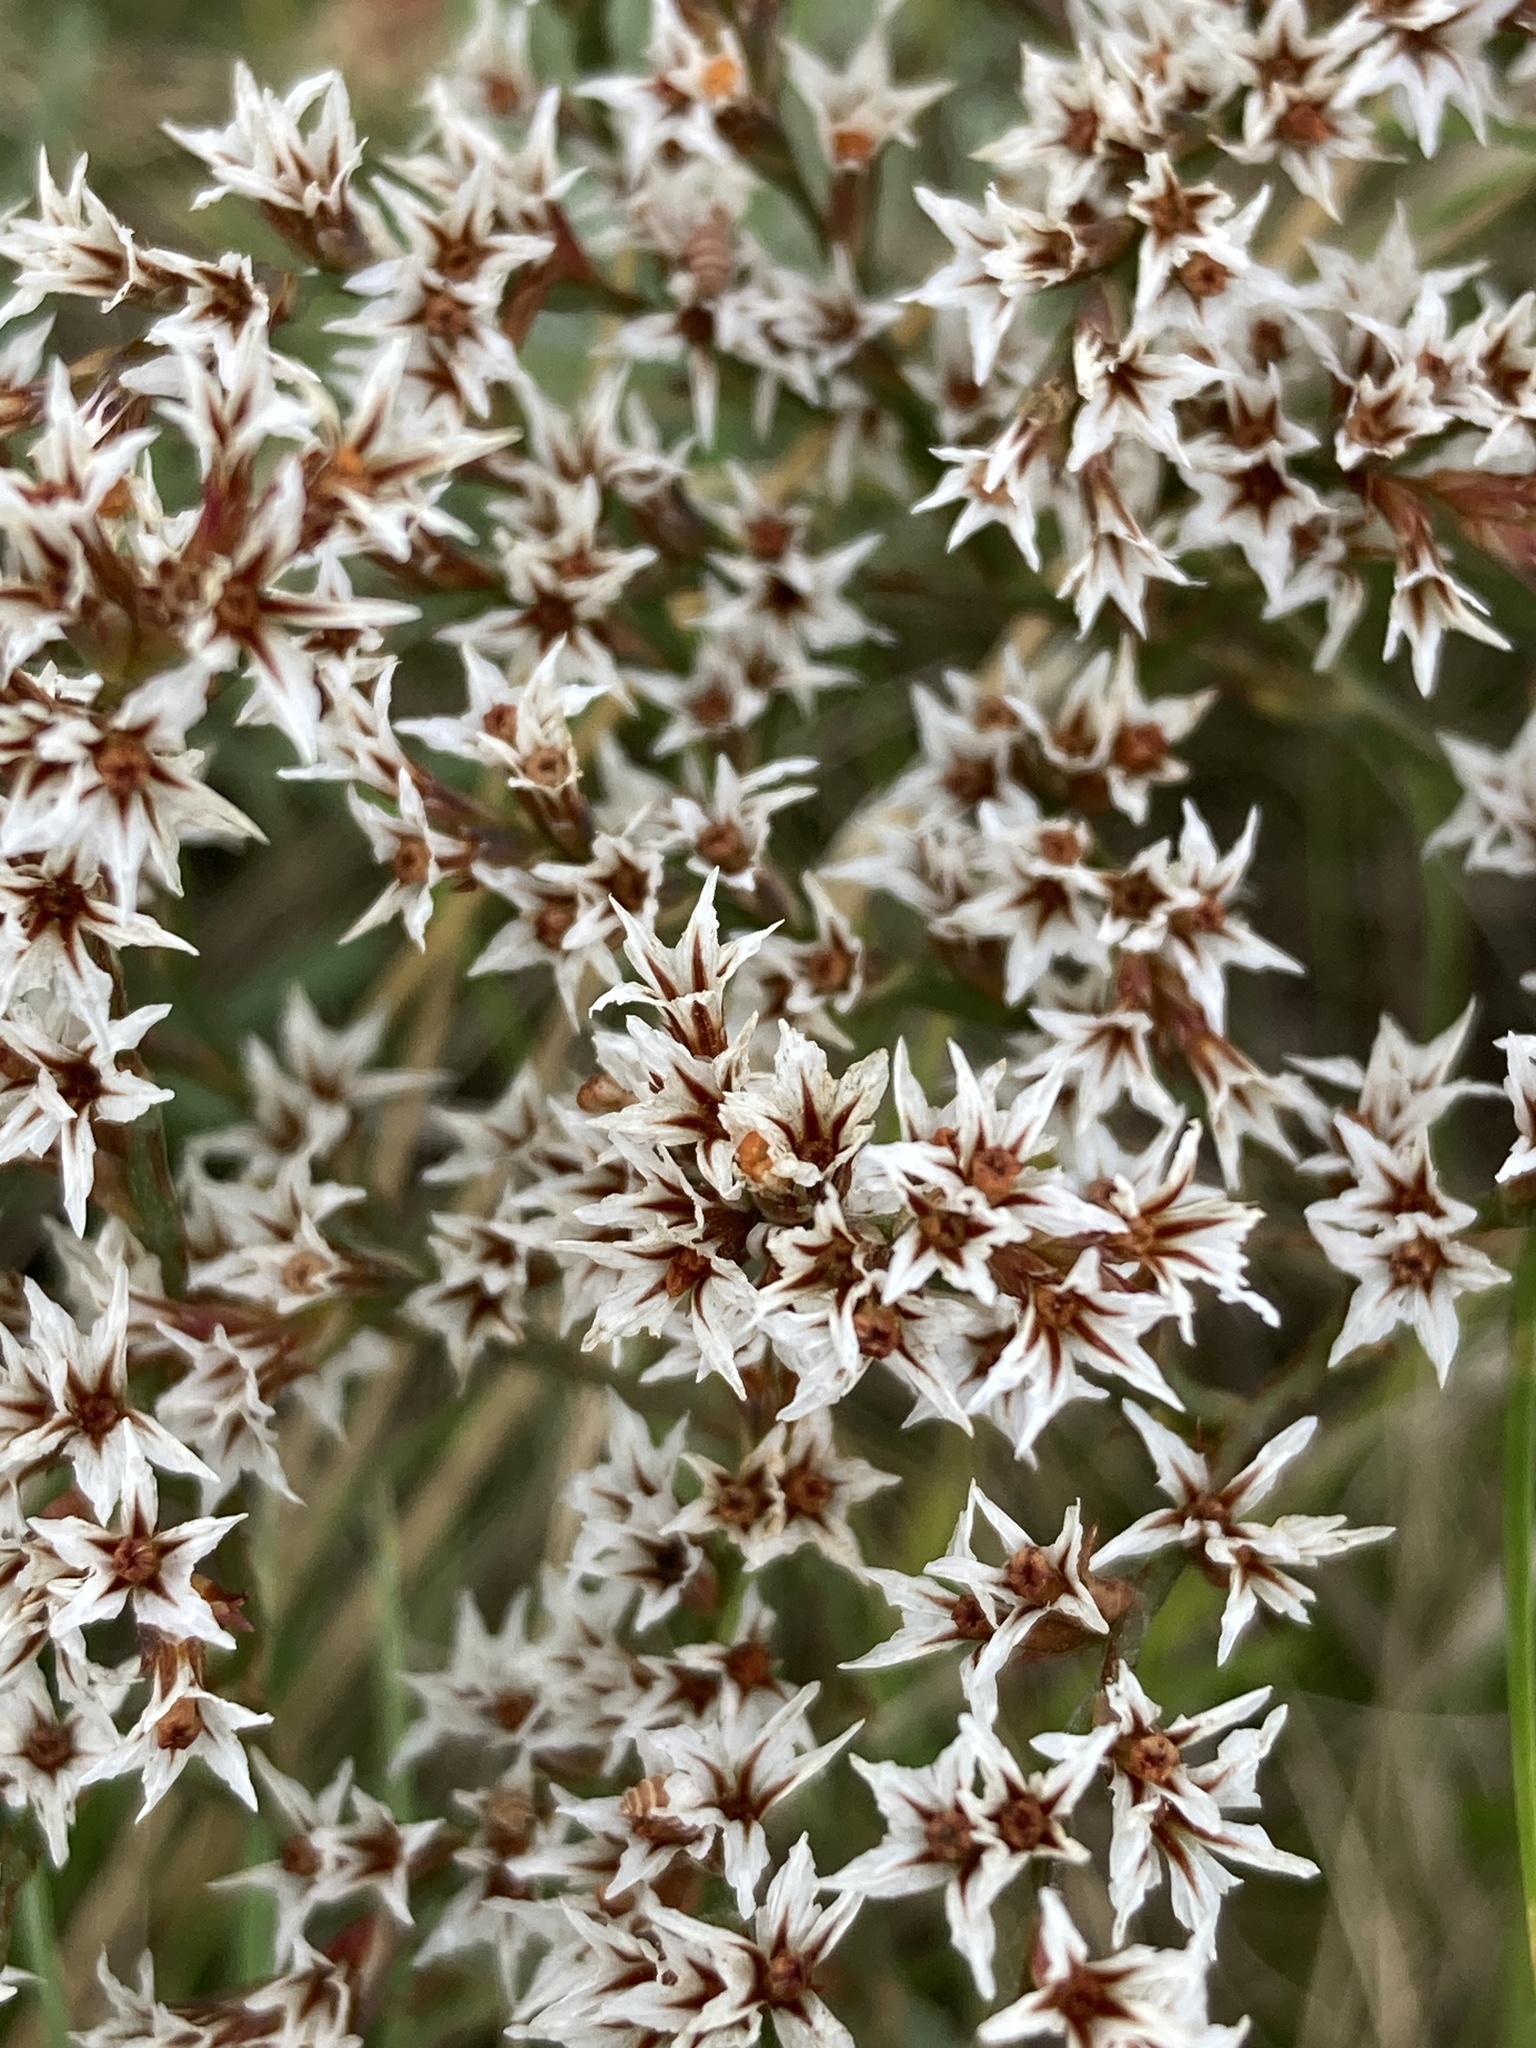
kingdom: Plantae
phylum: Tracheophyta
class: Magnoliopsida
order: Caryophyllales
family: Plumbaginaceae
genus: Goniolimon
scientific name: Goniolimon tataricum
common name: Statice
